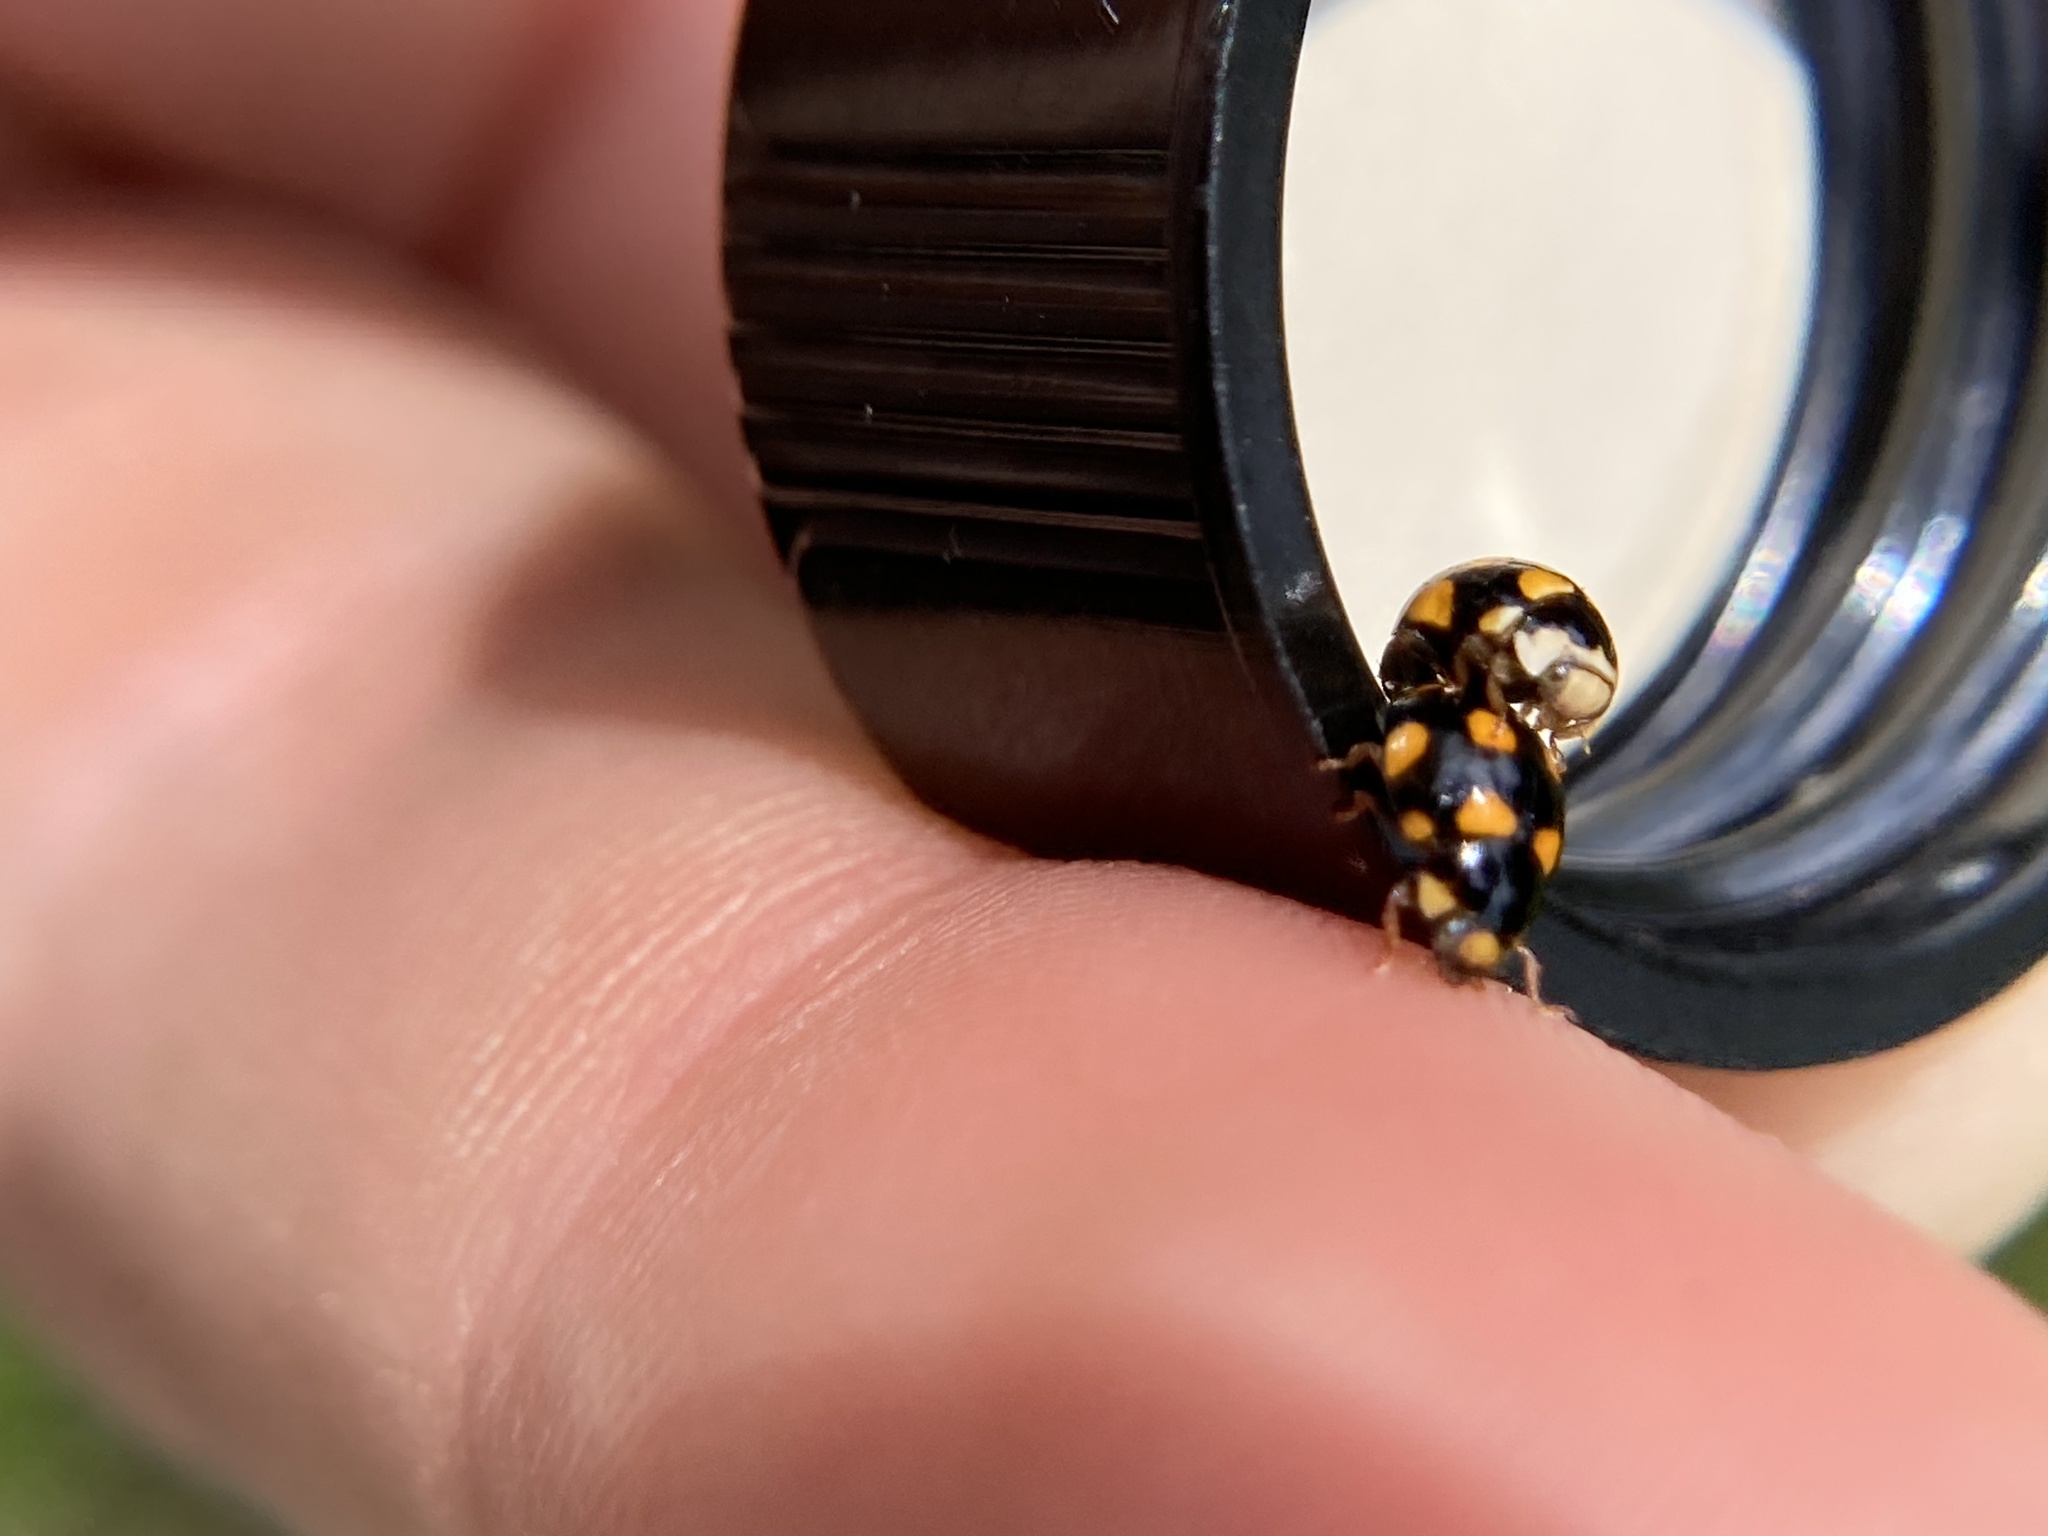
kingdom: Animalia
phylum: Arthropoda
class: Insecta
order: Coleoptera
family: Coccinellidae
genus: Brachiacantha
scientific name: Brachiacantha ursina
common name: Ursine spurleg lady beetle
